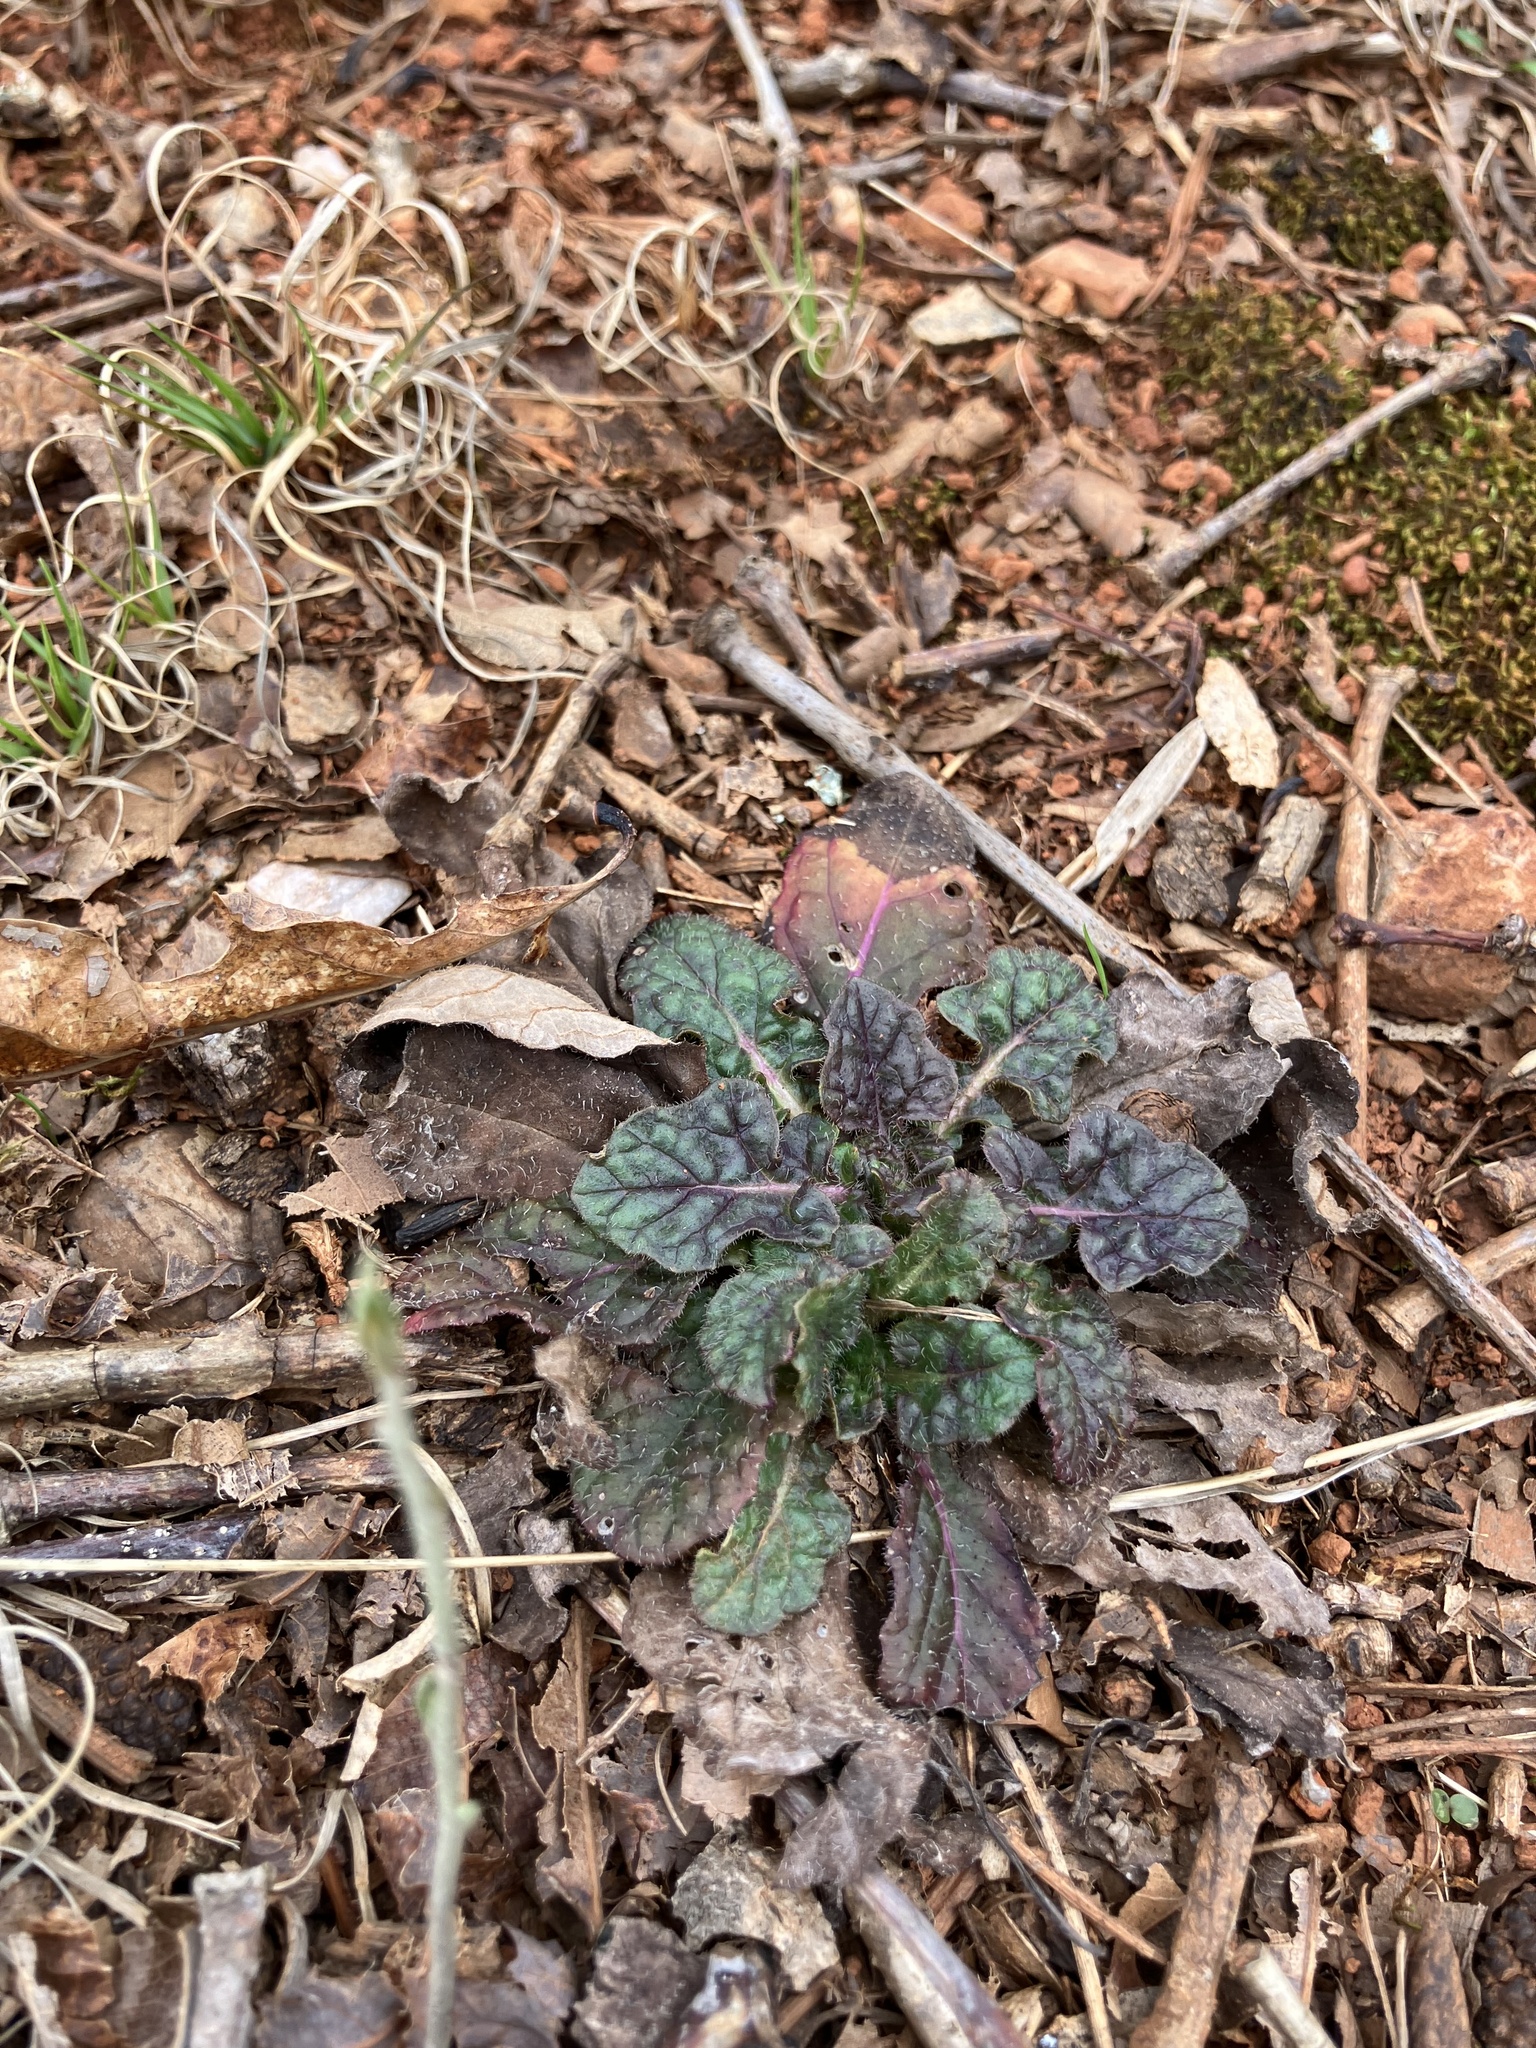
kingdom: Plantae
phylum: Tracheophyta
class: Magnoliopsida
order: Lamiales
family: Lamiaceae
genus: Salvia
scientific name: Salvia lyrata
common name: Cancerweed
